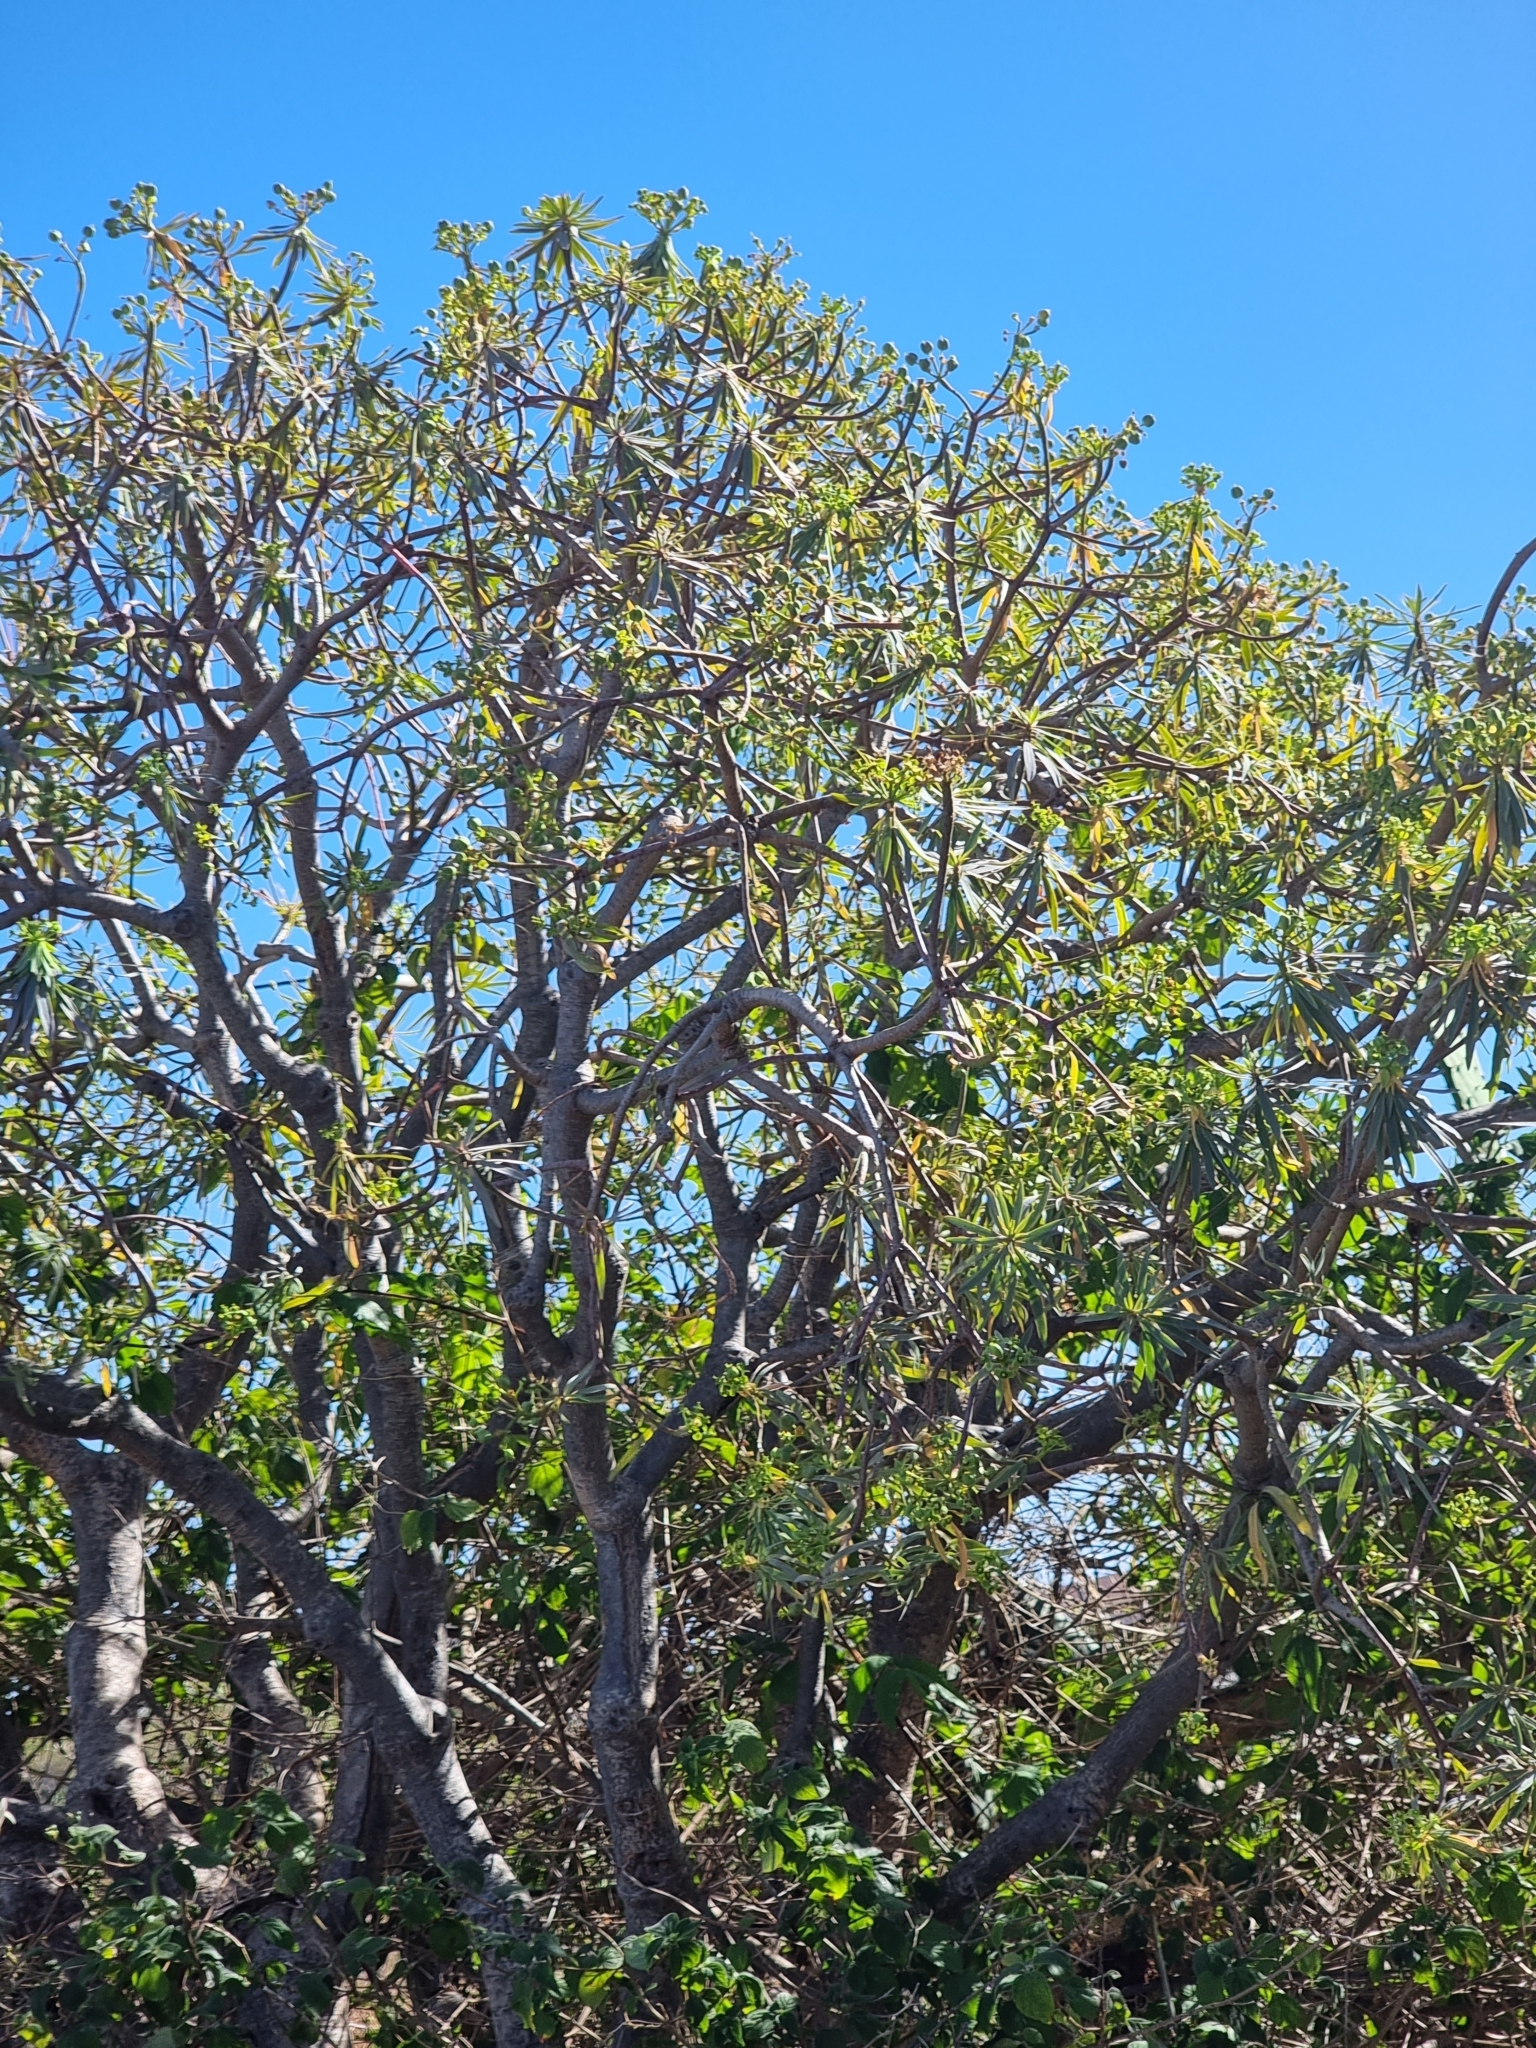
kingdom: Plantae
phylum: Tracheophyta
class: Magnoliopsida
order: Malpighiales
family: Euphorbiaceae
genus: Euphorbia
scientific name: Euphorbia piscatoria
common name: Fish-stunning spurge
